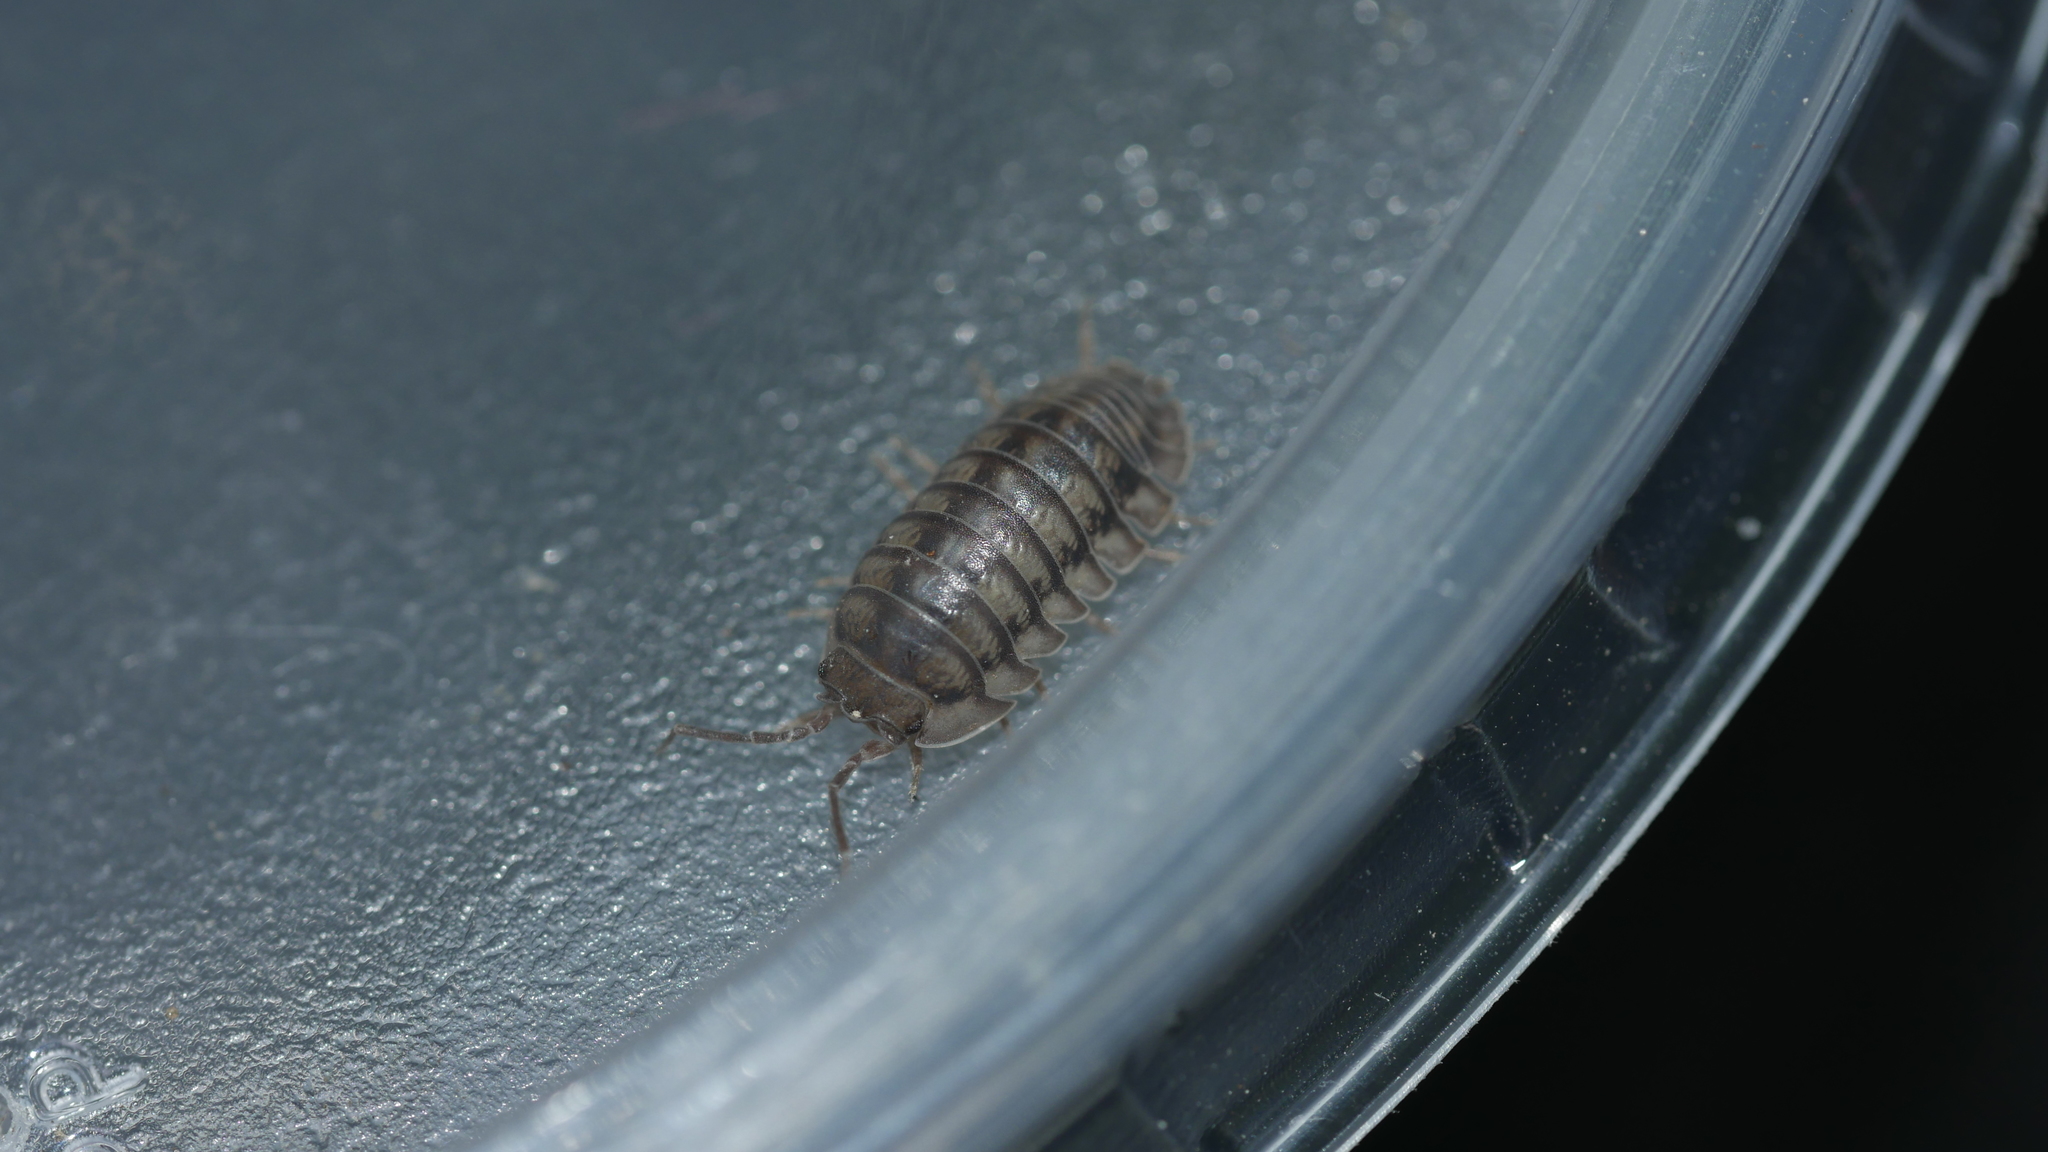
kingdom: Animalia
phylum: Arthropoda
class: Malacostraca
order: Isopoda
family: Armadillidiidae
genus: Armadillidium
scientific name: Armadillidium nasatum
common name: Isopod
